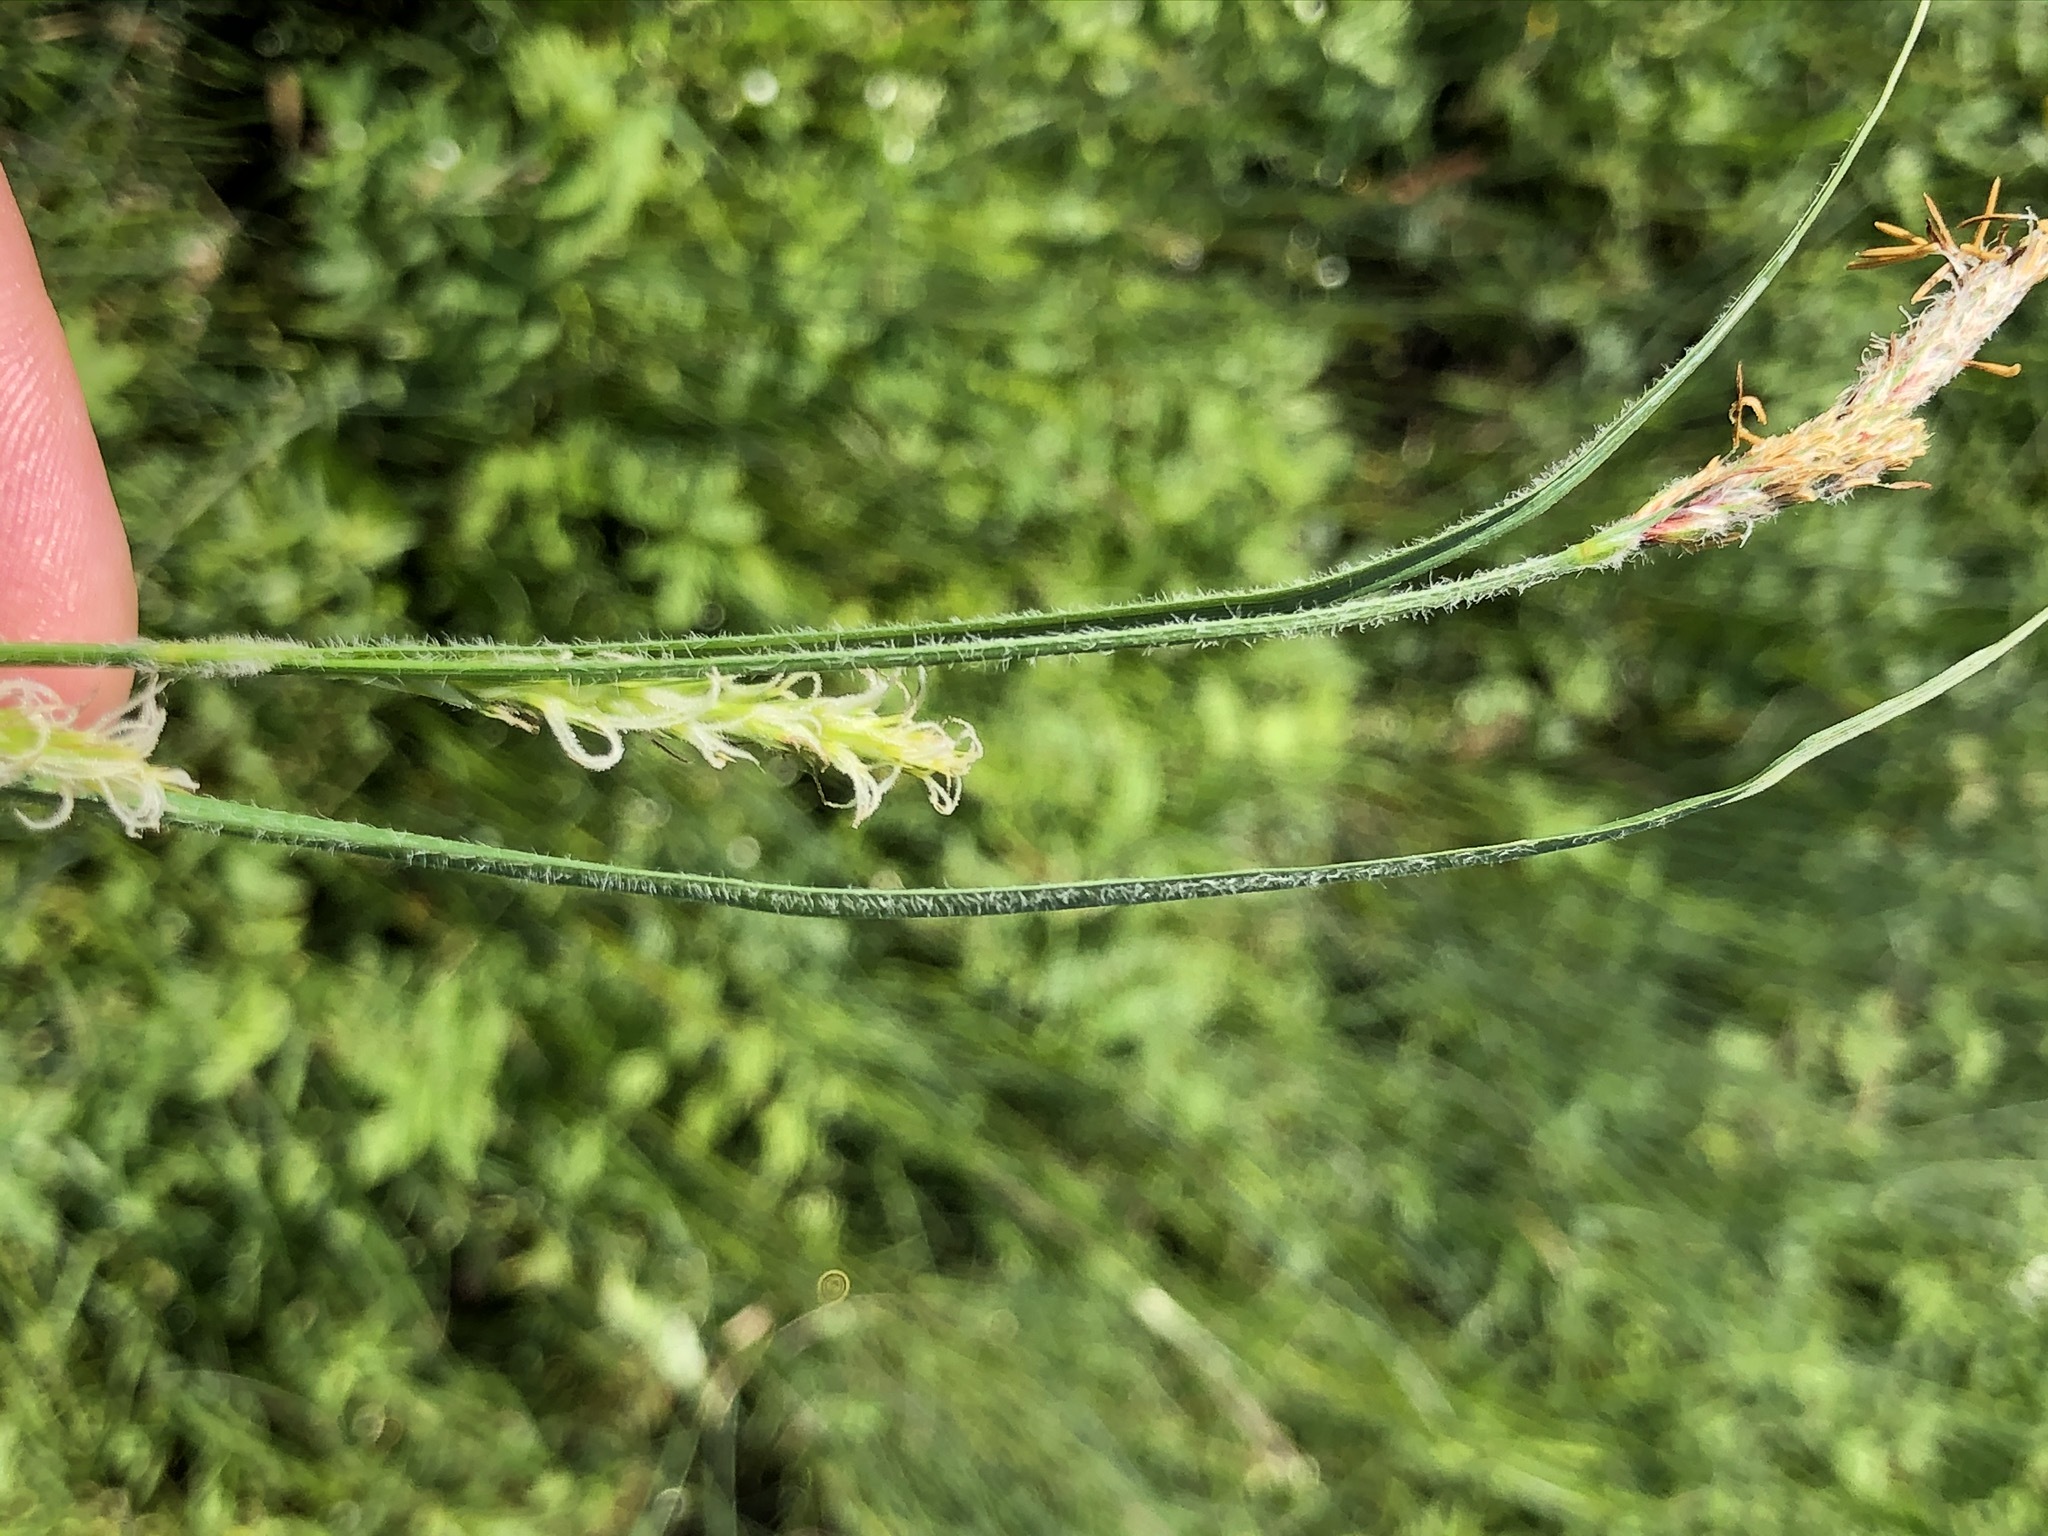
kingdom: Plantae
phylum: Tracheophyta
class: Liliopsida
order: Poales
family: Cyperaceae
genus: Carex
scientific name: Carex hirta
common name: Hairy sedge
